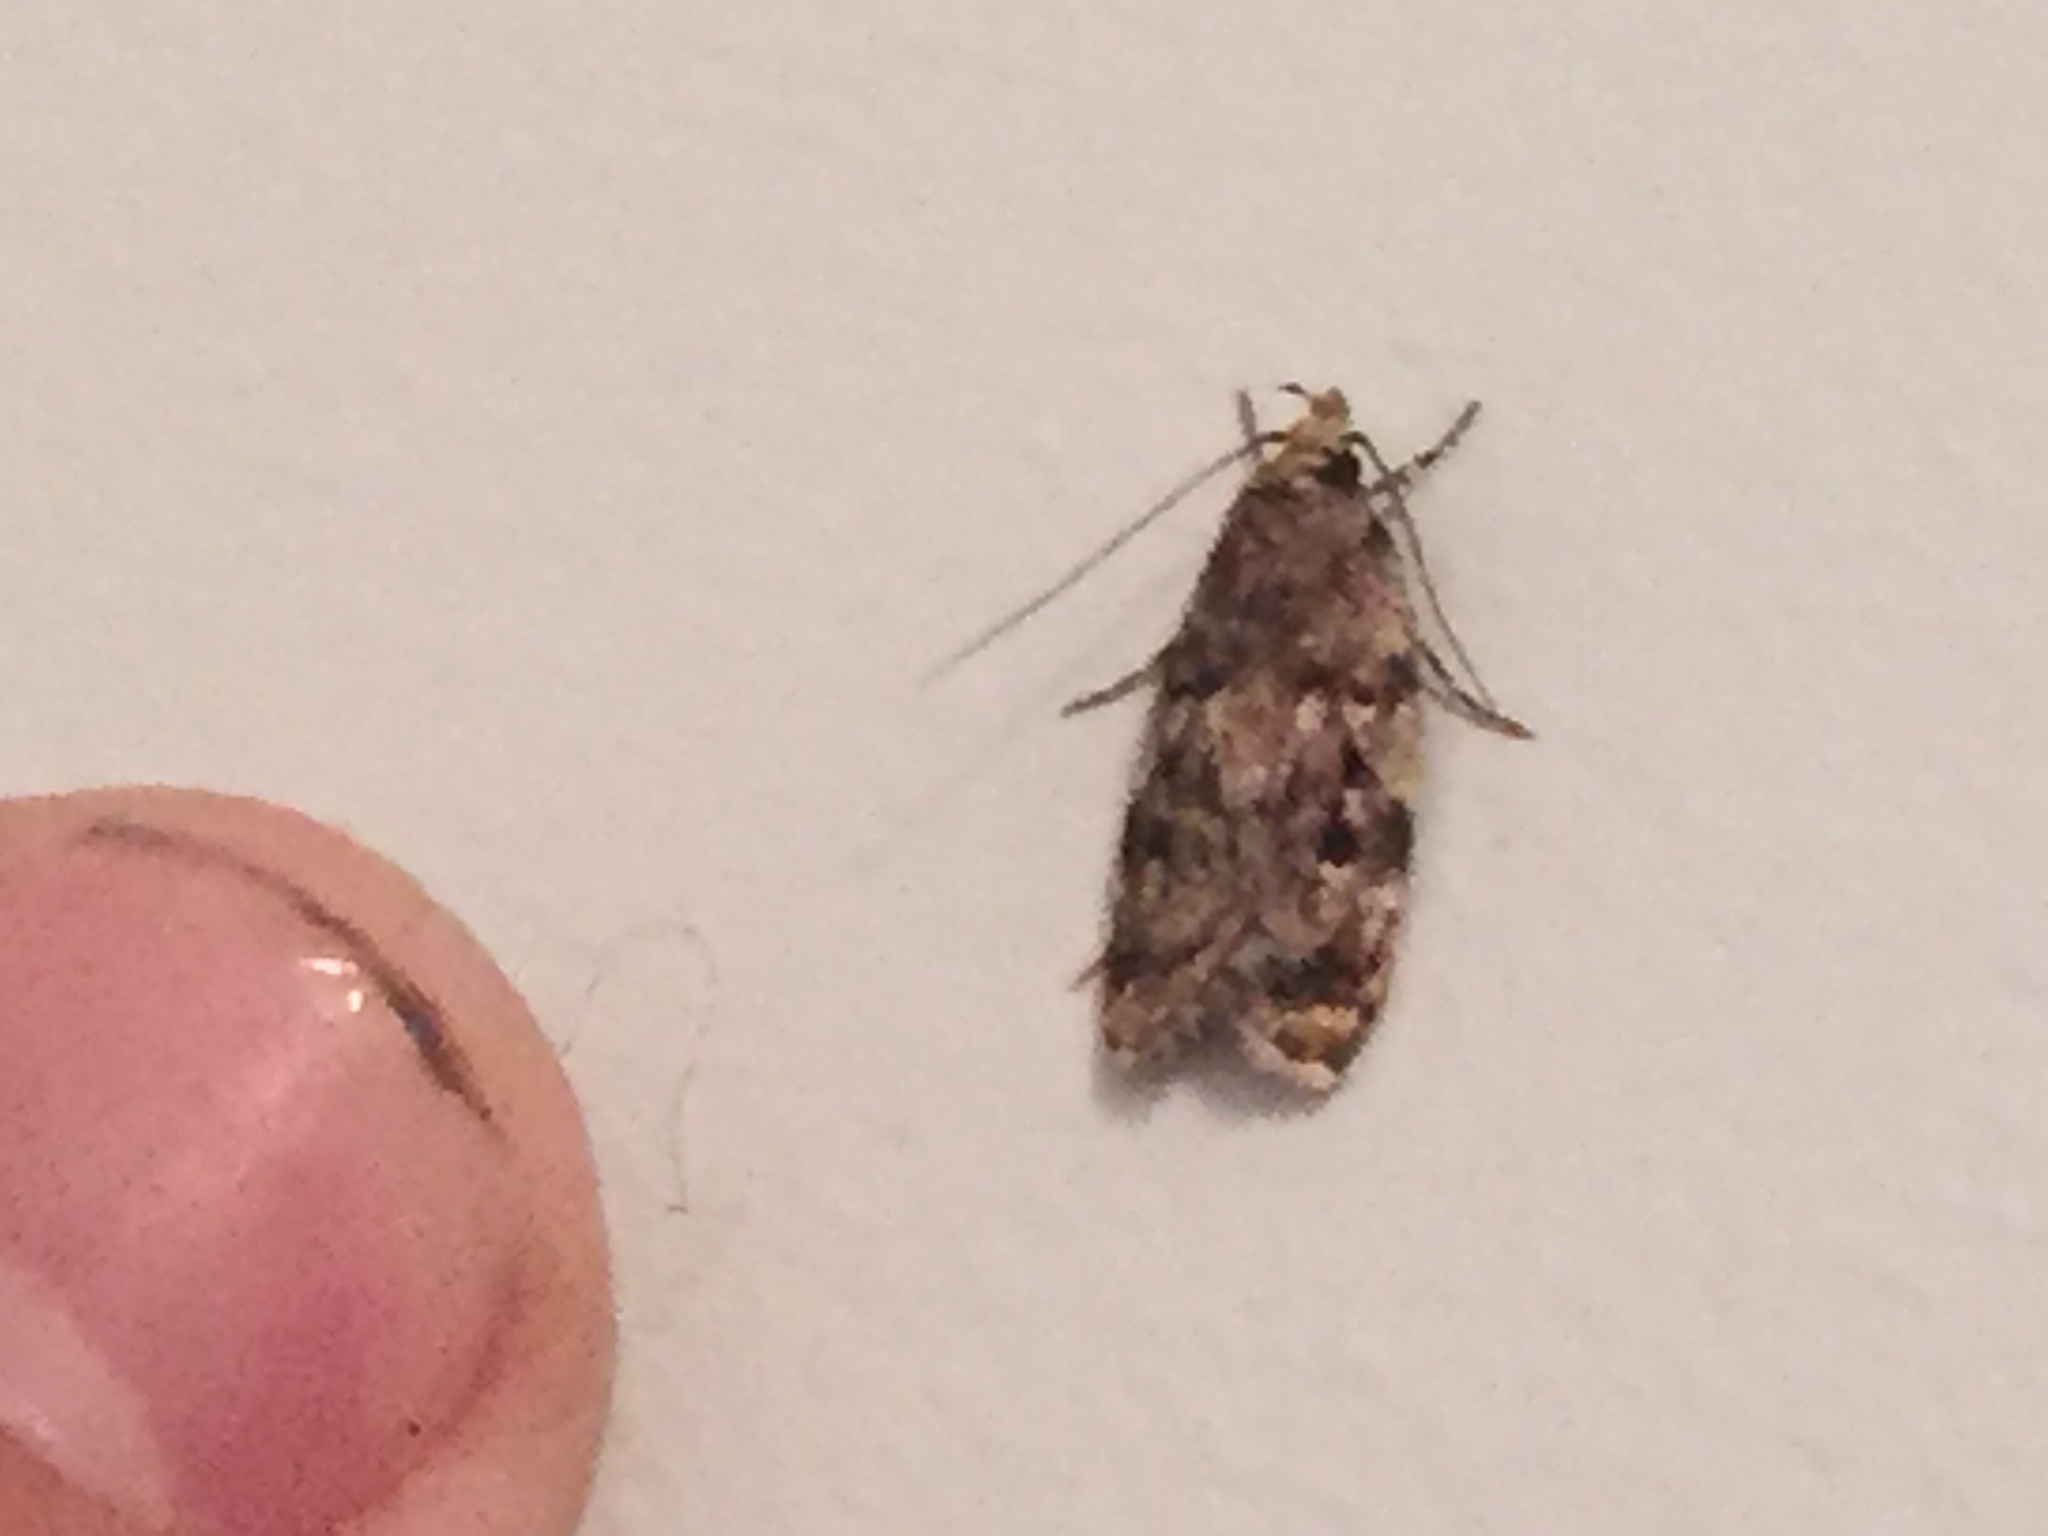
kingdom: Animalia
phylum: Arthropoda
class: Insecta
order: Lepidoptera
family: Oecophoridae
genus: Barea
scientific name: Barea exarcha
